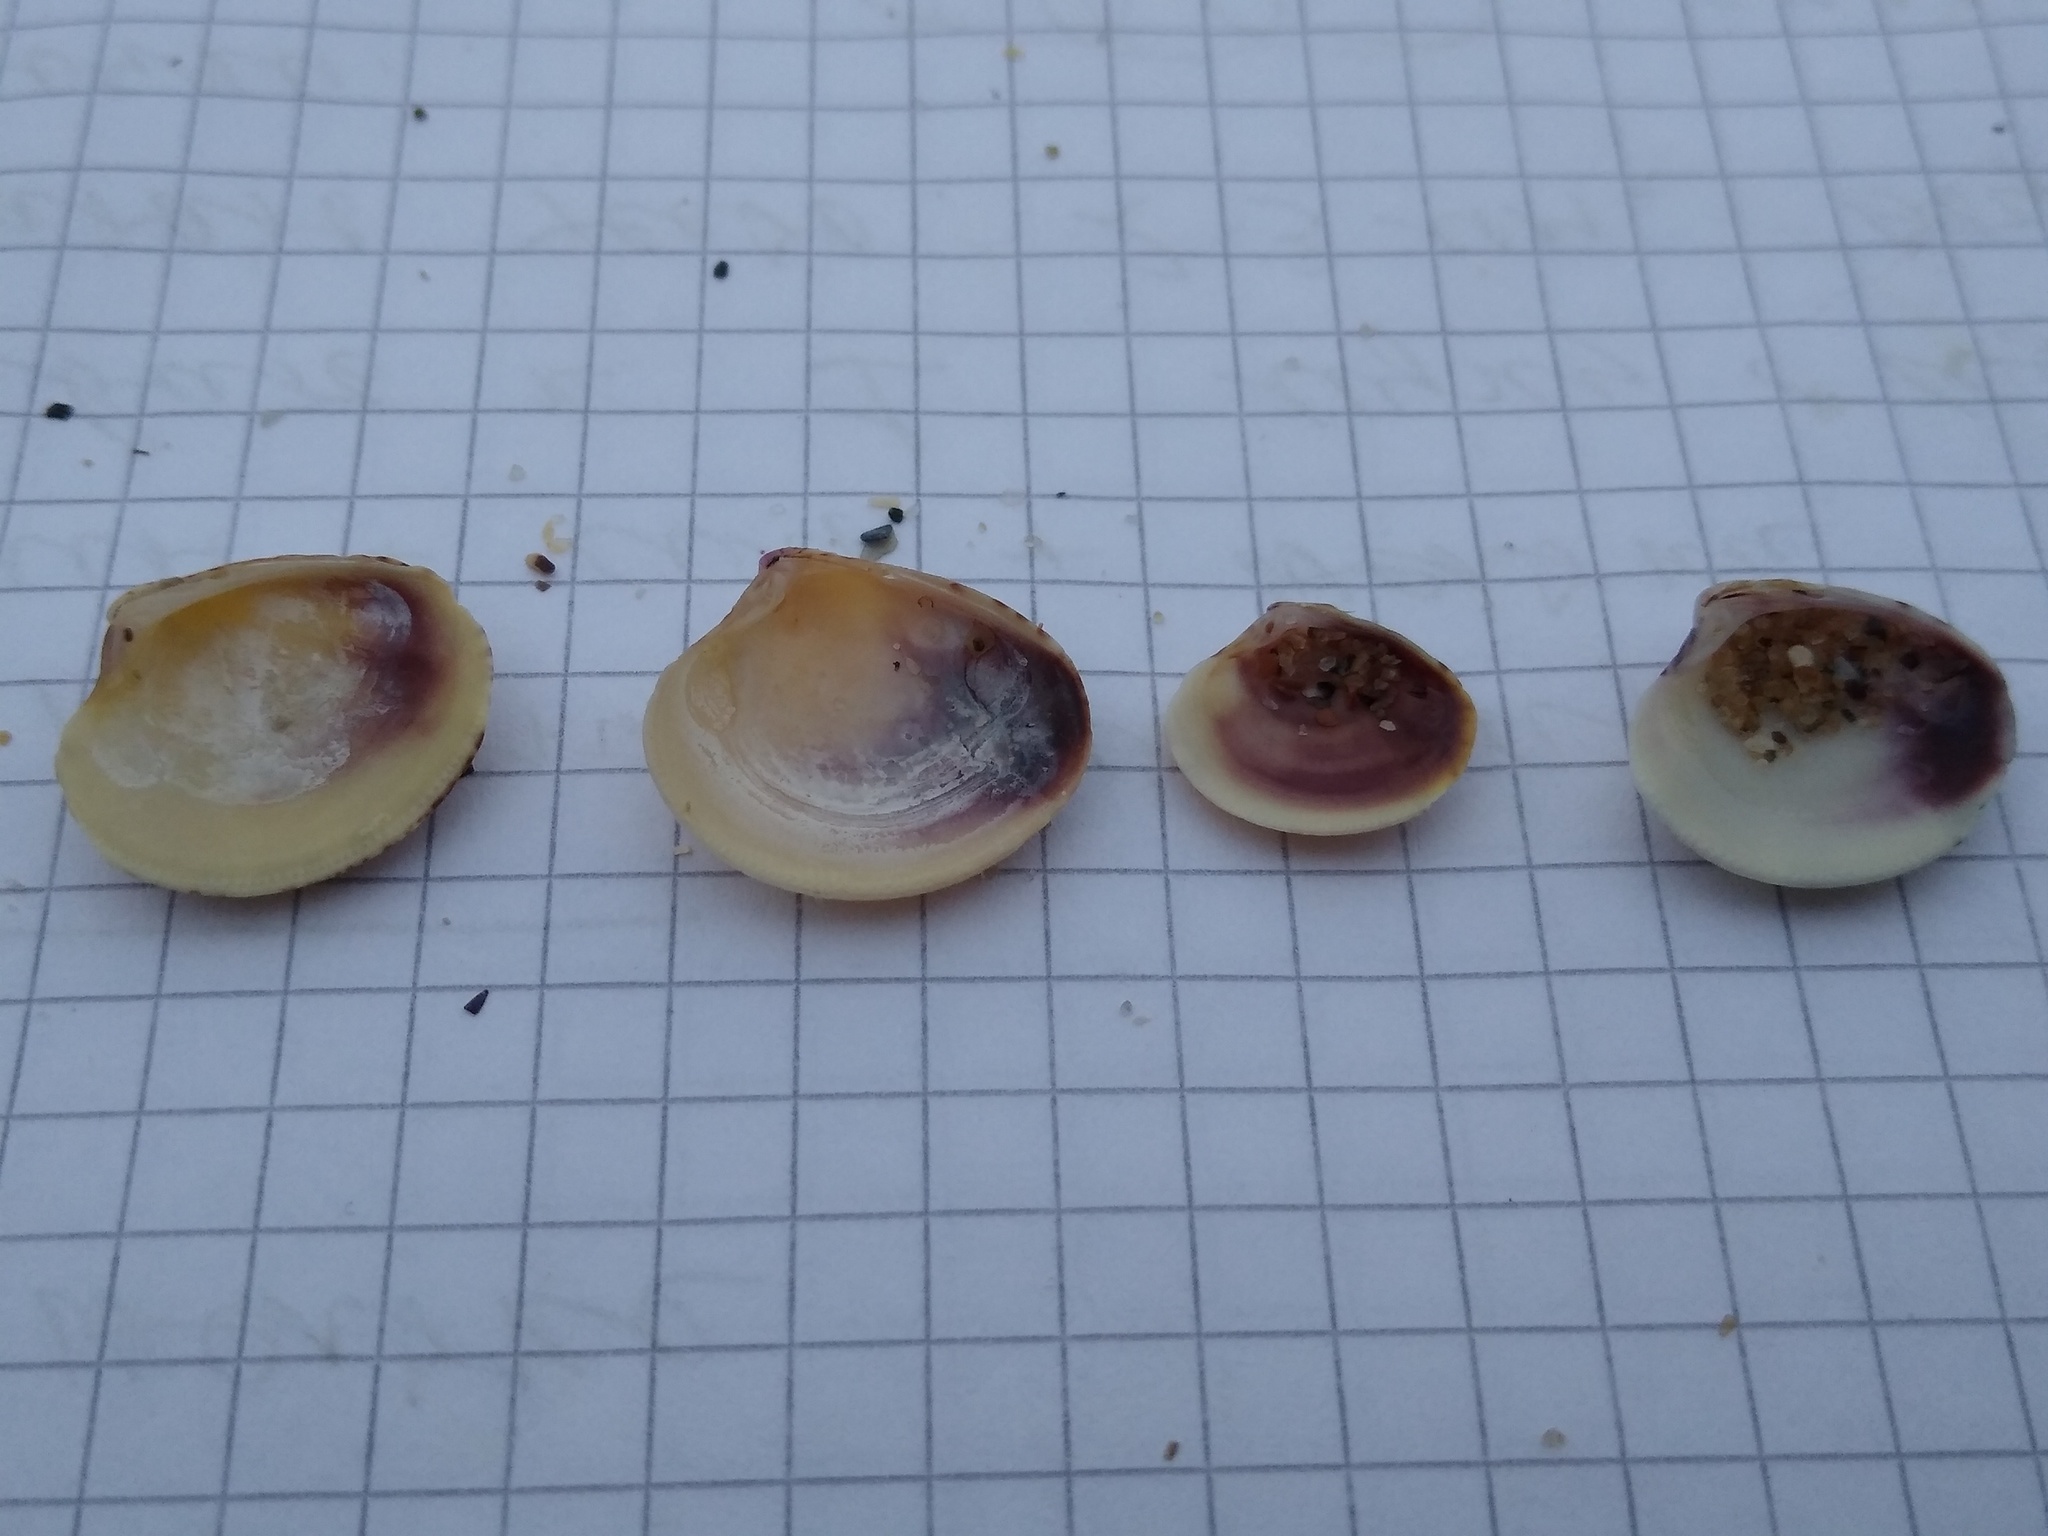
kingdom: Animalia
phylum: Mollusca
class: Bivalvia
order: Venerida
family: Veneridae
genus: Chamelea
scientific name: Chamelea gallina
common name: Chicken venus
